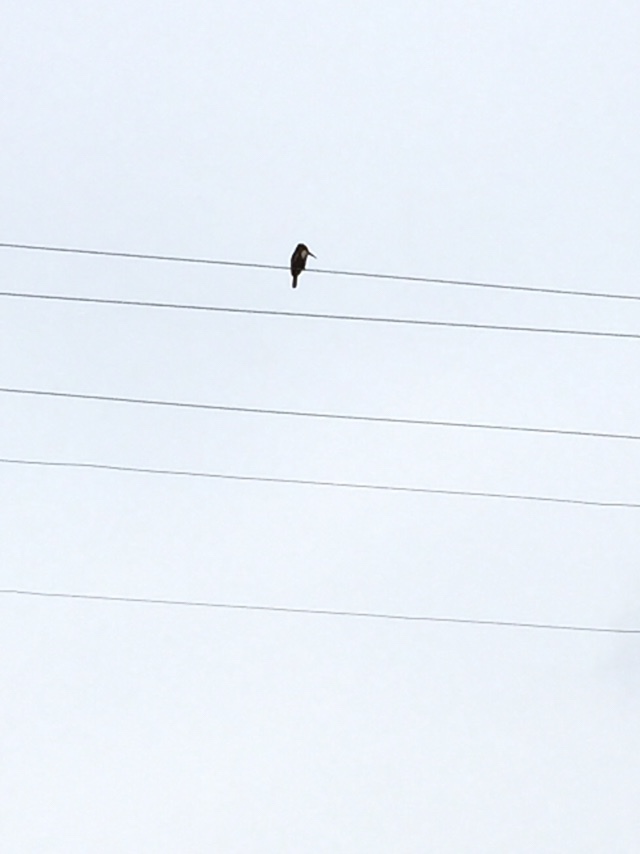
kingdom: Animalia
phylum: Chordata
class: Aves
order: Coraciiformes
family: Alcedinidae
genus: Halcyon
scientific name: Halcyon smyrnensis
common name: White-throated kingfisher
